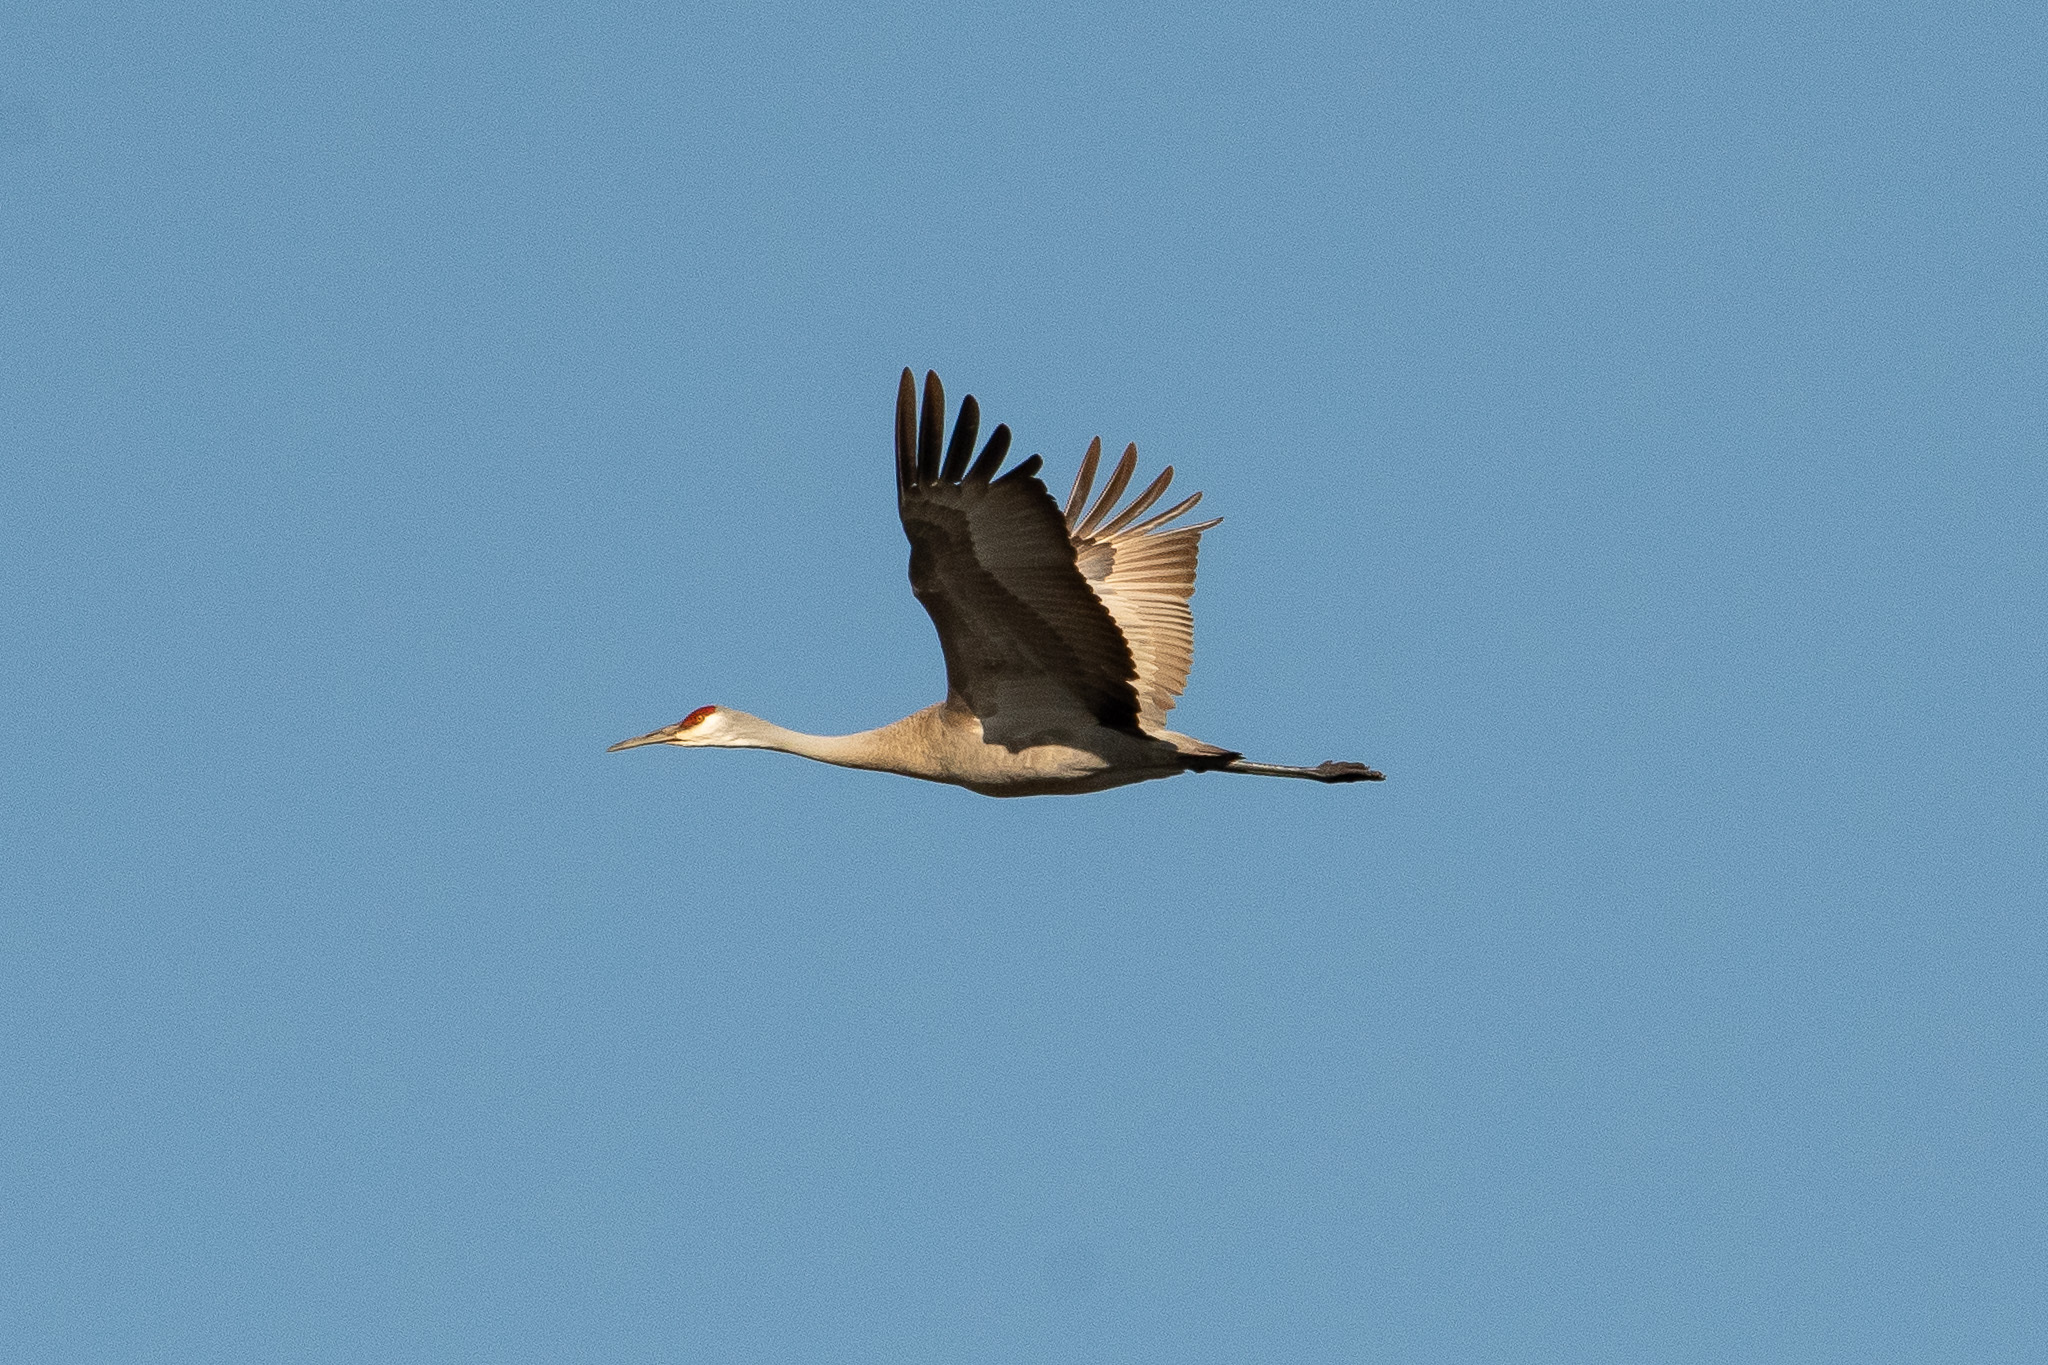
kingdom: Animalia
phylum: Chordata
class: Aves
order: Gruiformes
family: Gruidae
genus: Grus
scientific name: Grus canadensis
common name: Sandhill crane
